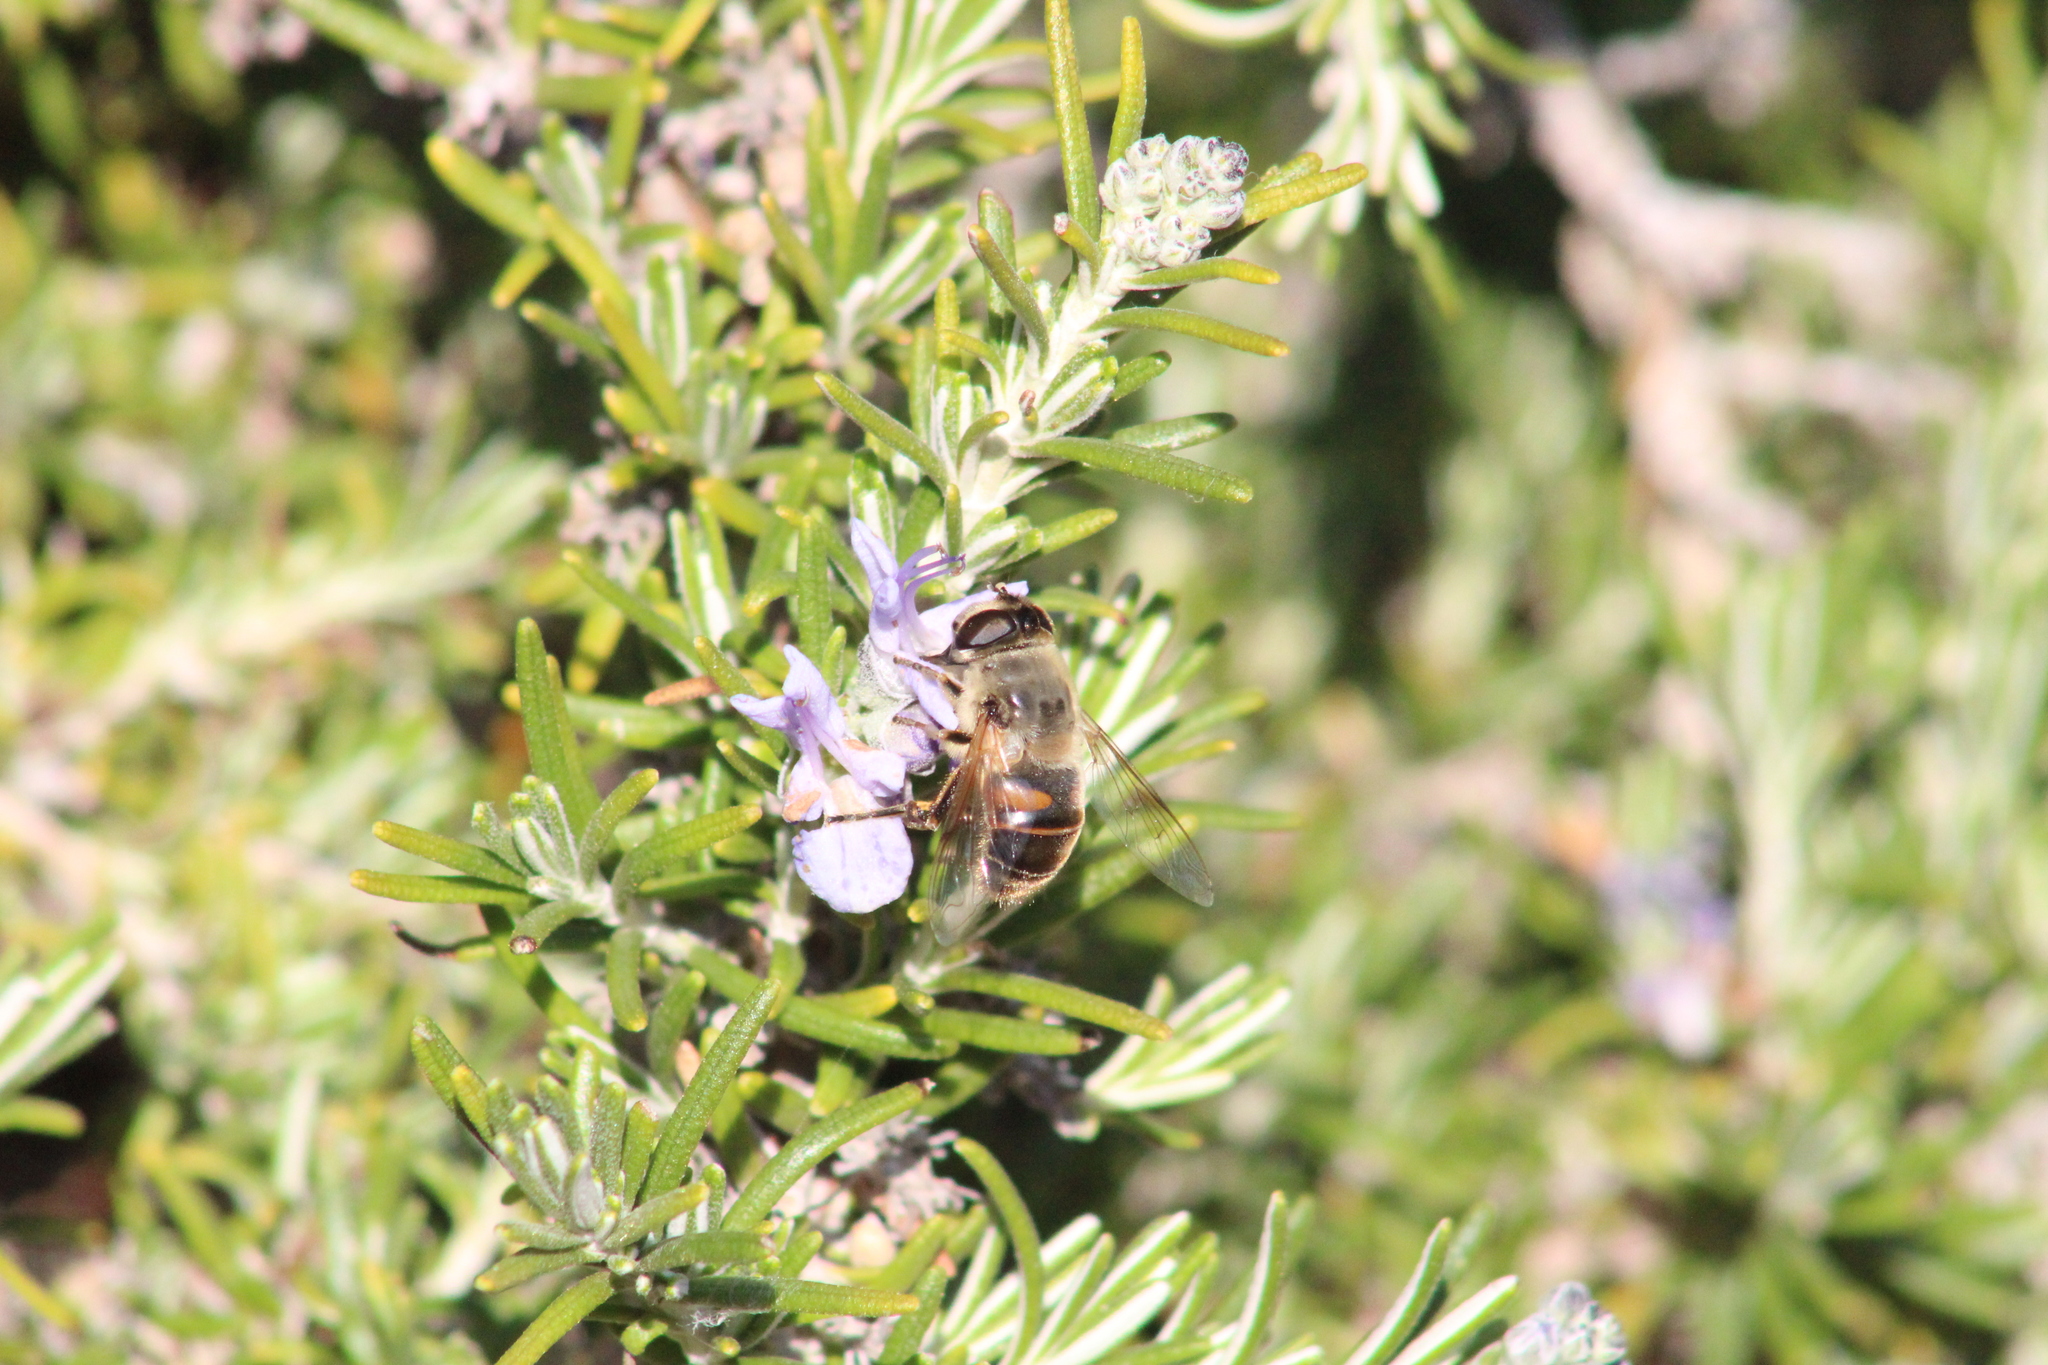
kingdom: Animalia
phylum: Arthropoda
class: Insecta
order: Diptera
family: Syrphidae
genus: Eristalis
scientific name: Eristalis tenax
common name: Drone fly
